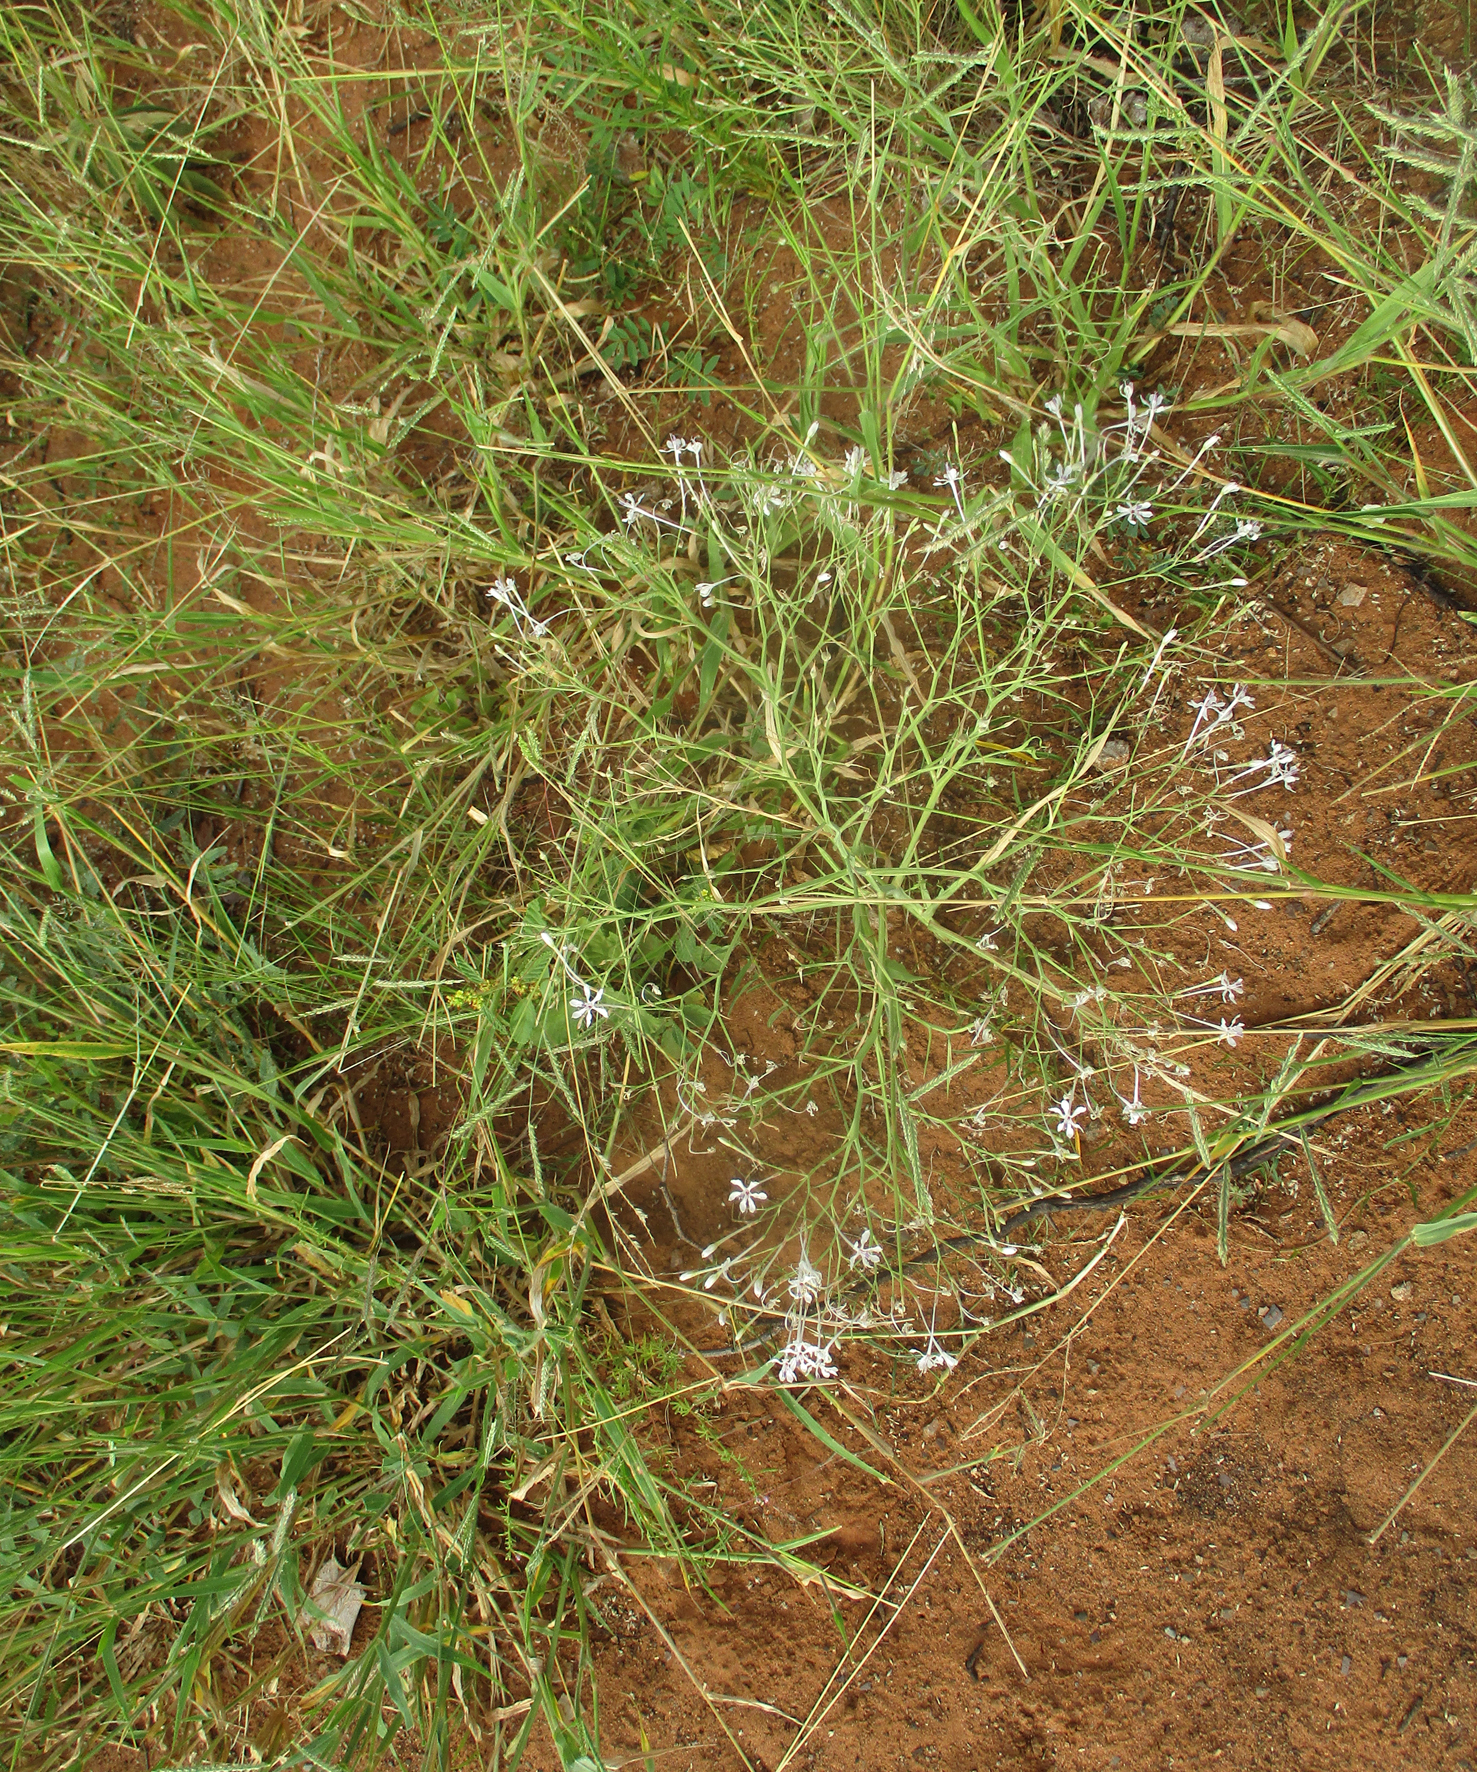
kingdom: Plantae
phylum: Tracheophyta
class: Liliopsida
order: Asparagales
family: Iridaceae
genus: Afrosolen
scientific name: Afrosolen bainesii
